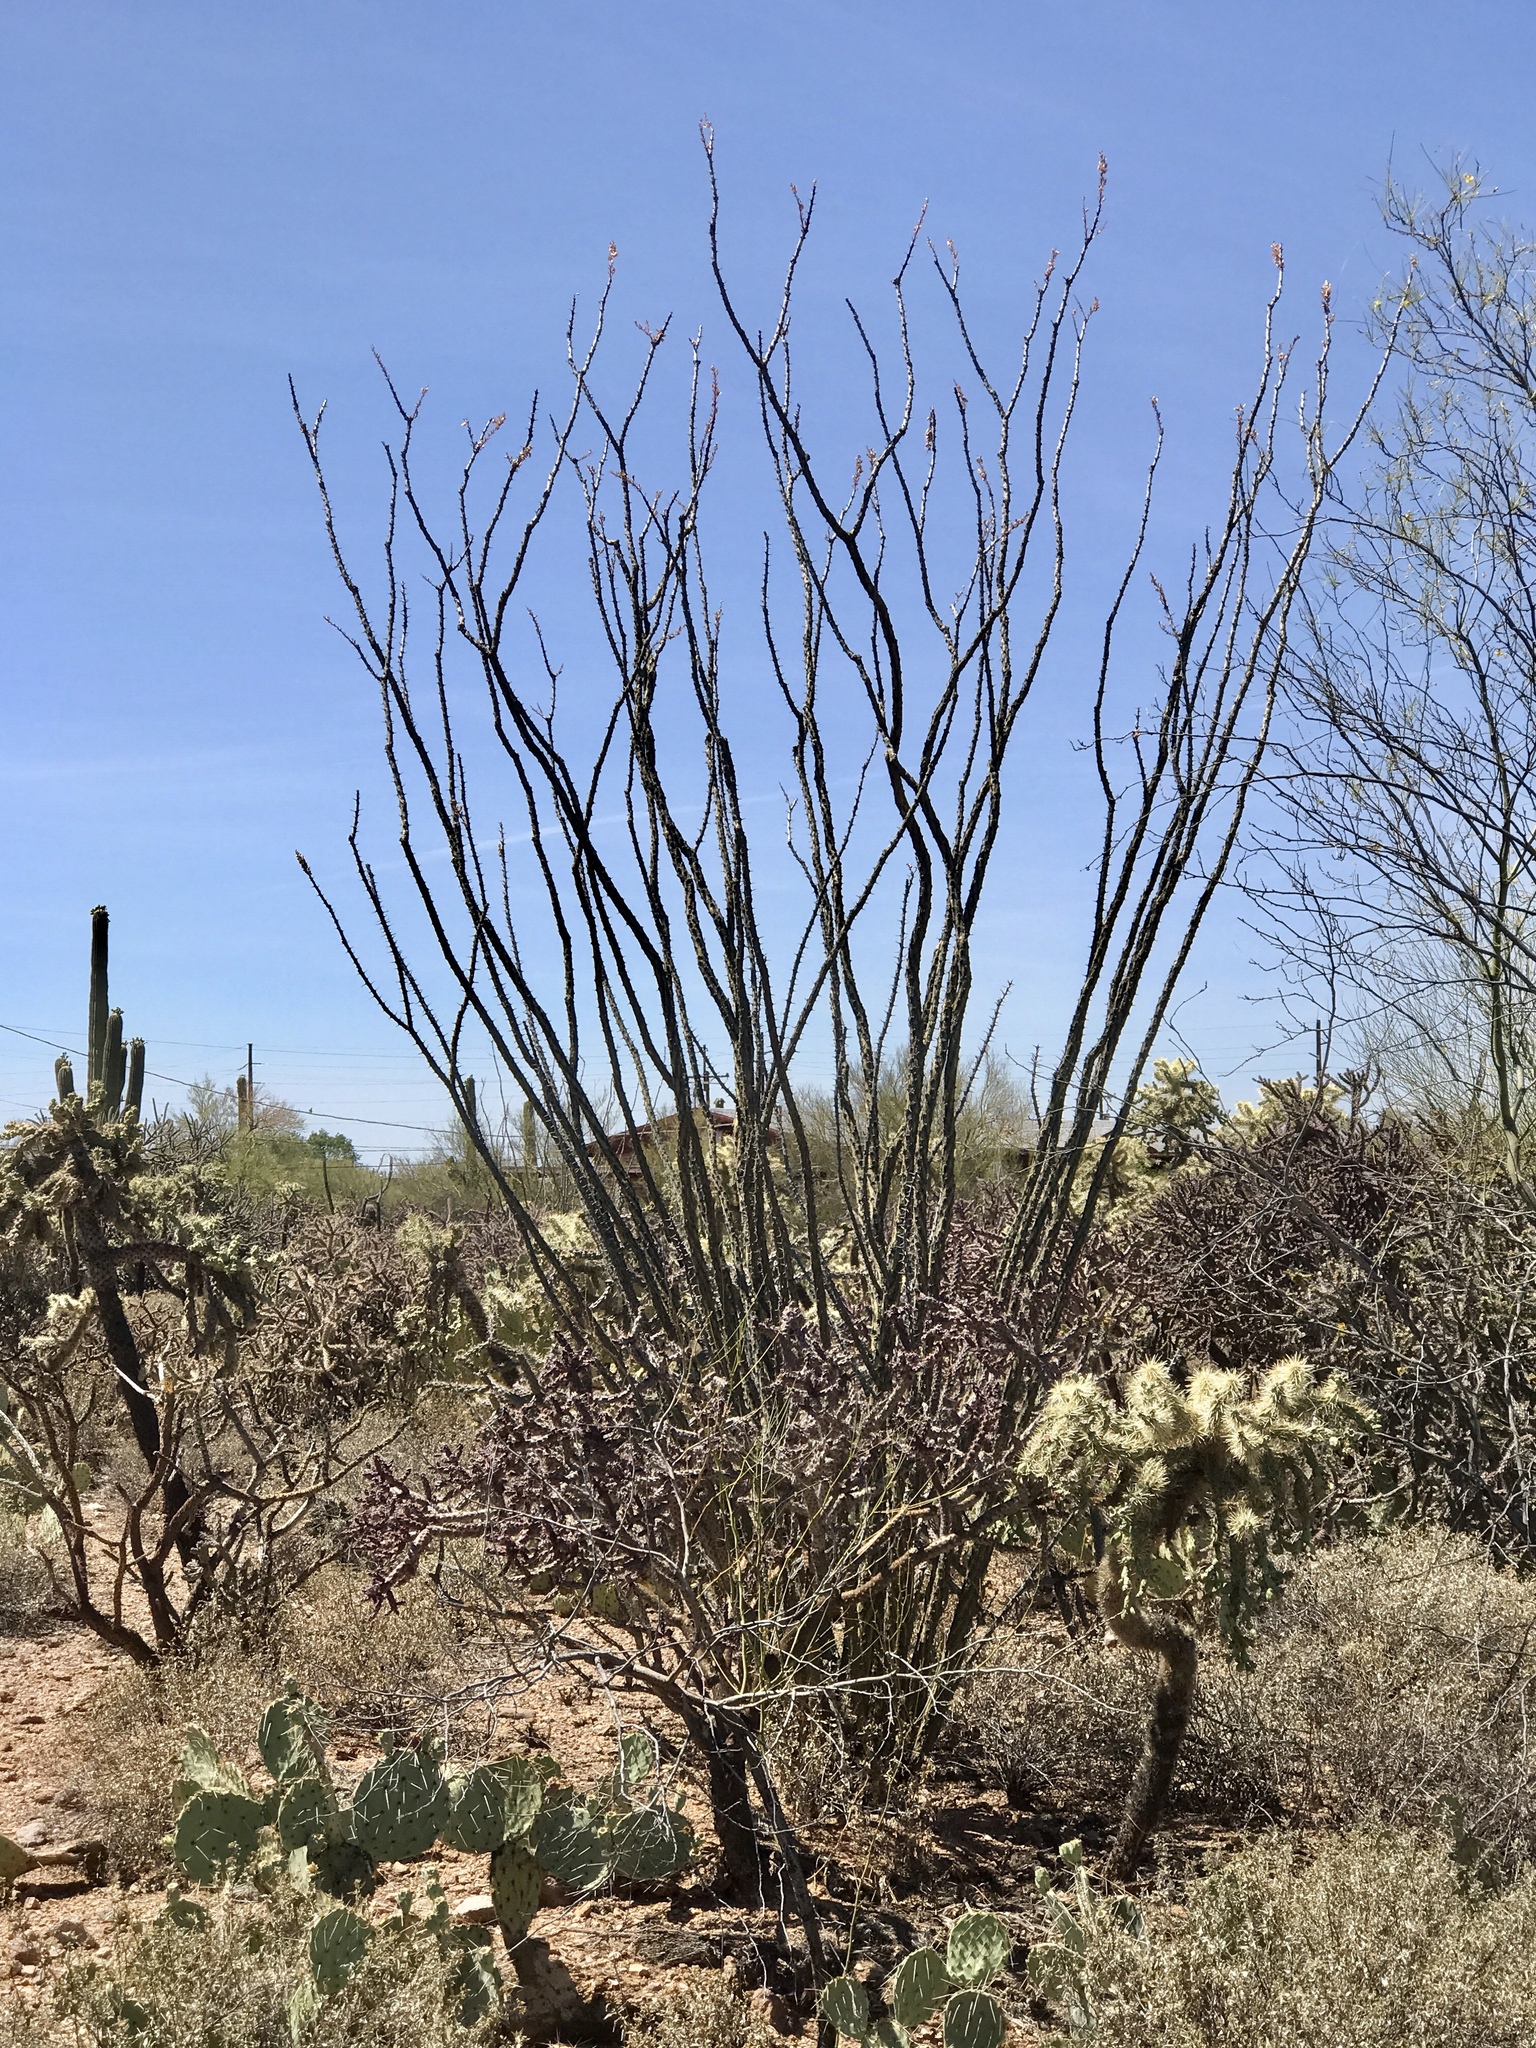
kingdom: Plantae
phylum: Tracheophyta
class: Magnoliopsida
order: Ericales
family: Fouquieriaceae
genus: Fouquieria
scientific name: Fouquieria splendens
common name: Vine-cactus
